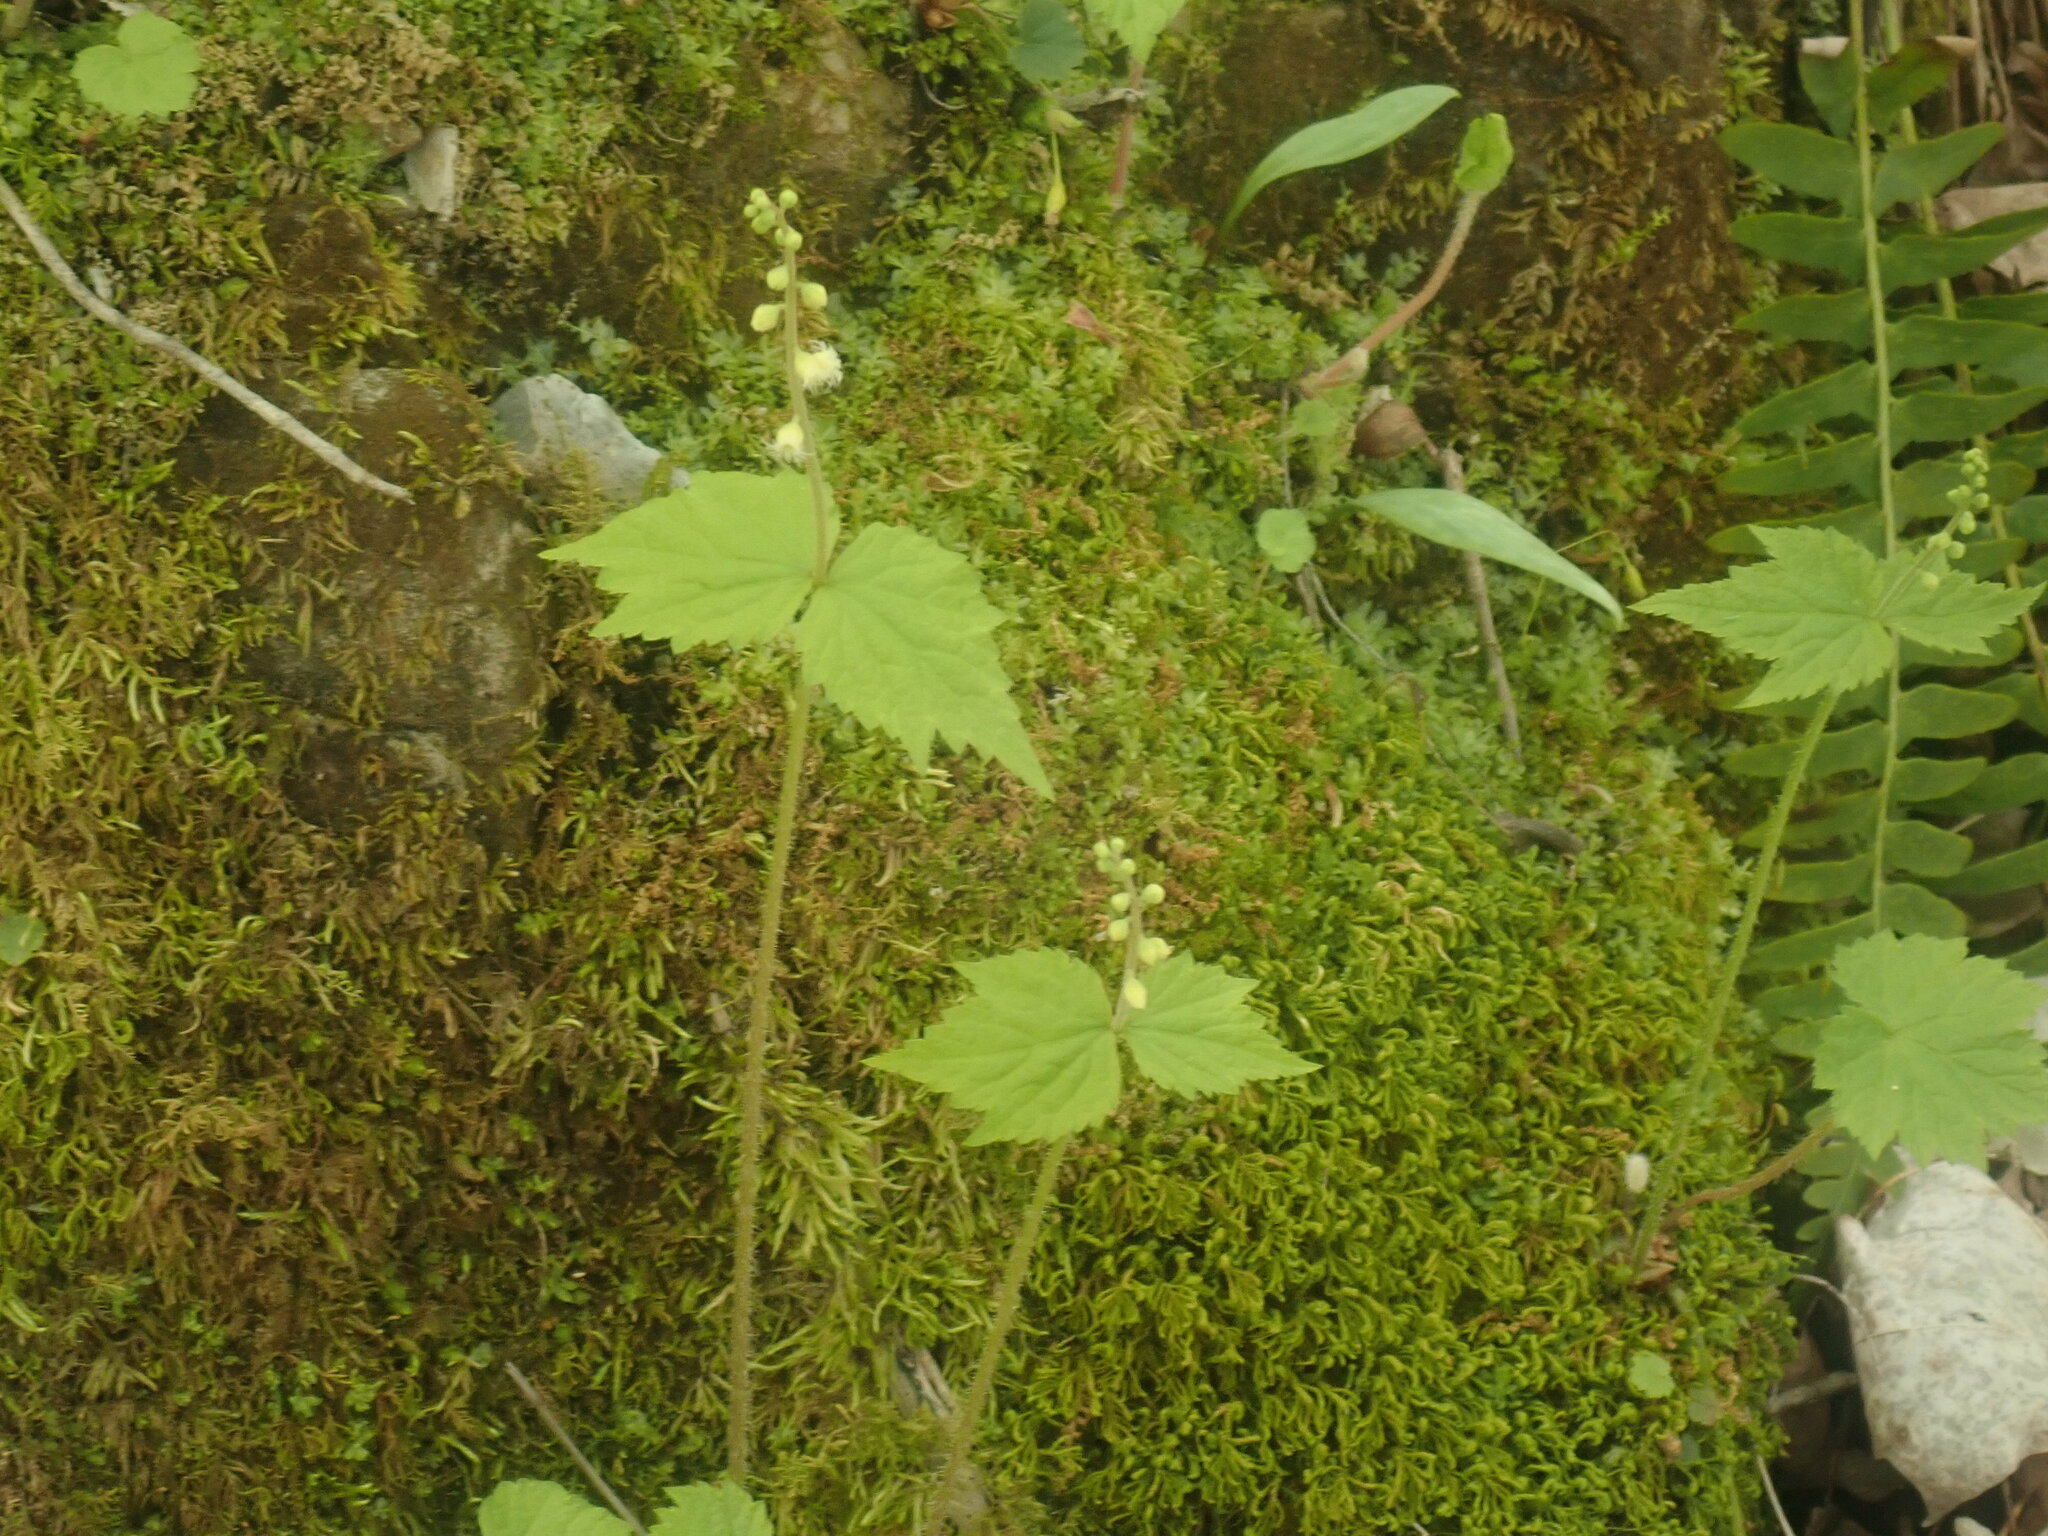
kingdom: Plantae
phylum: Tracheophyta
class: Magnoliopsida
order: Saxifragales
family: Saxifragaceae
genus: Mitella
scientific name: Mitella diphylla
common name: Coolwort
